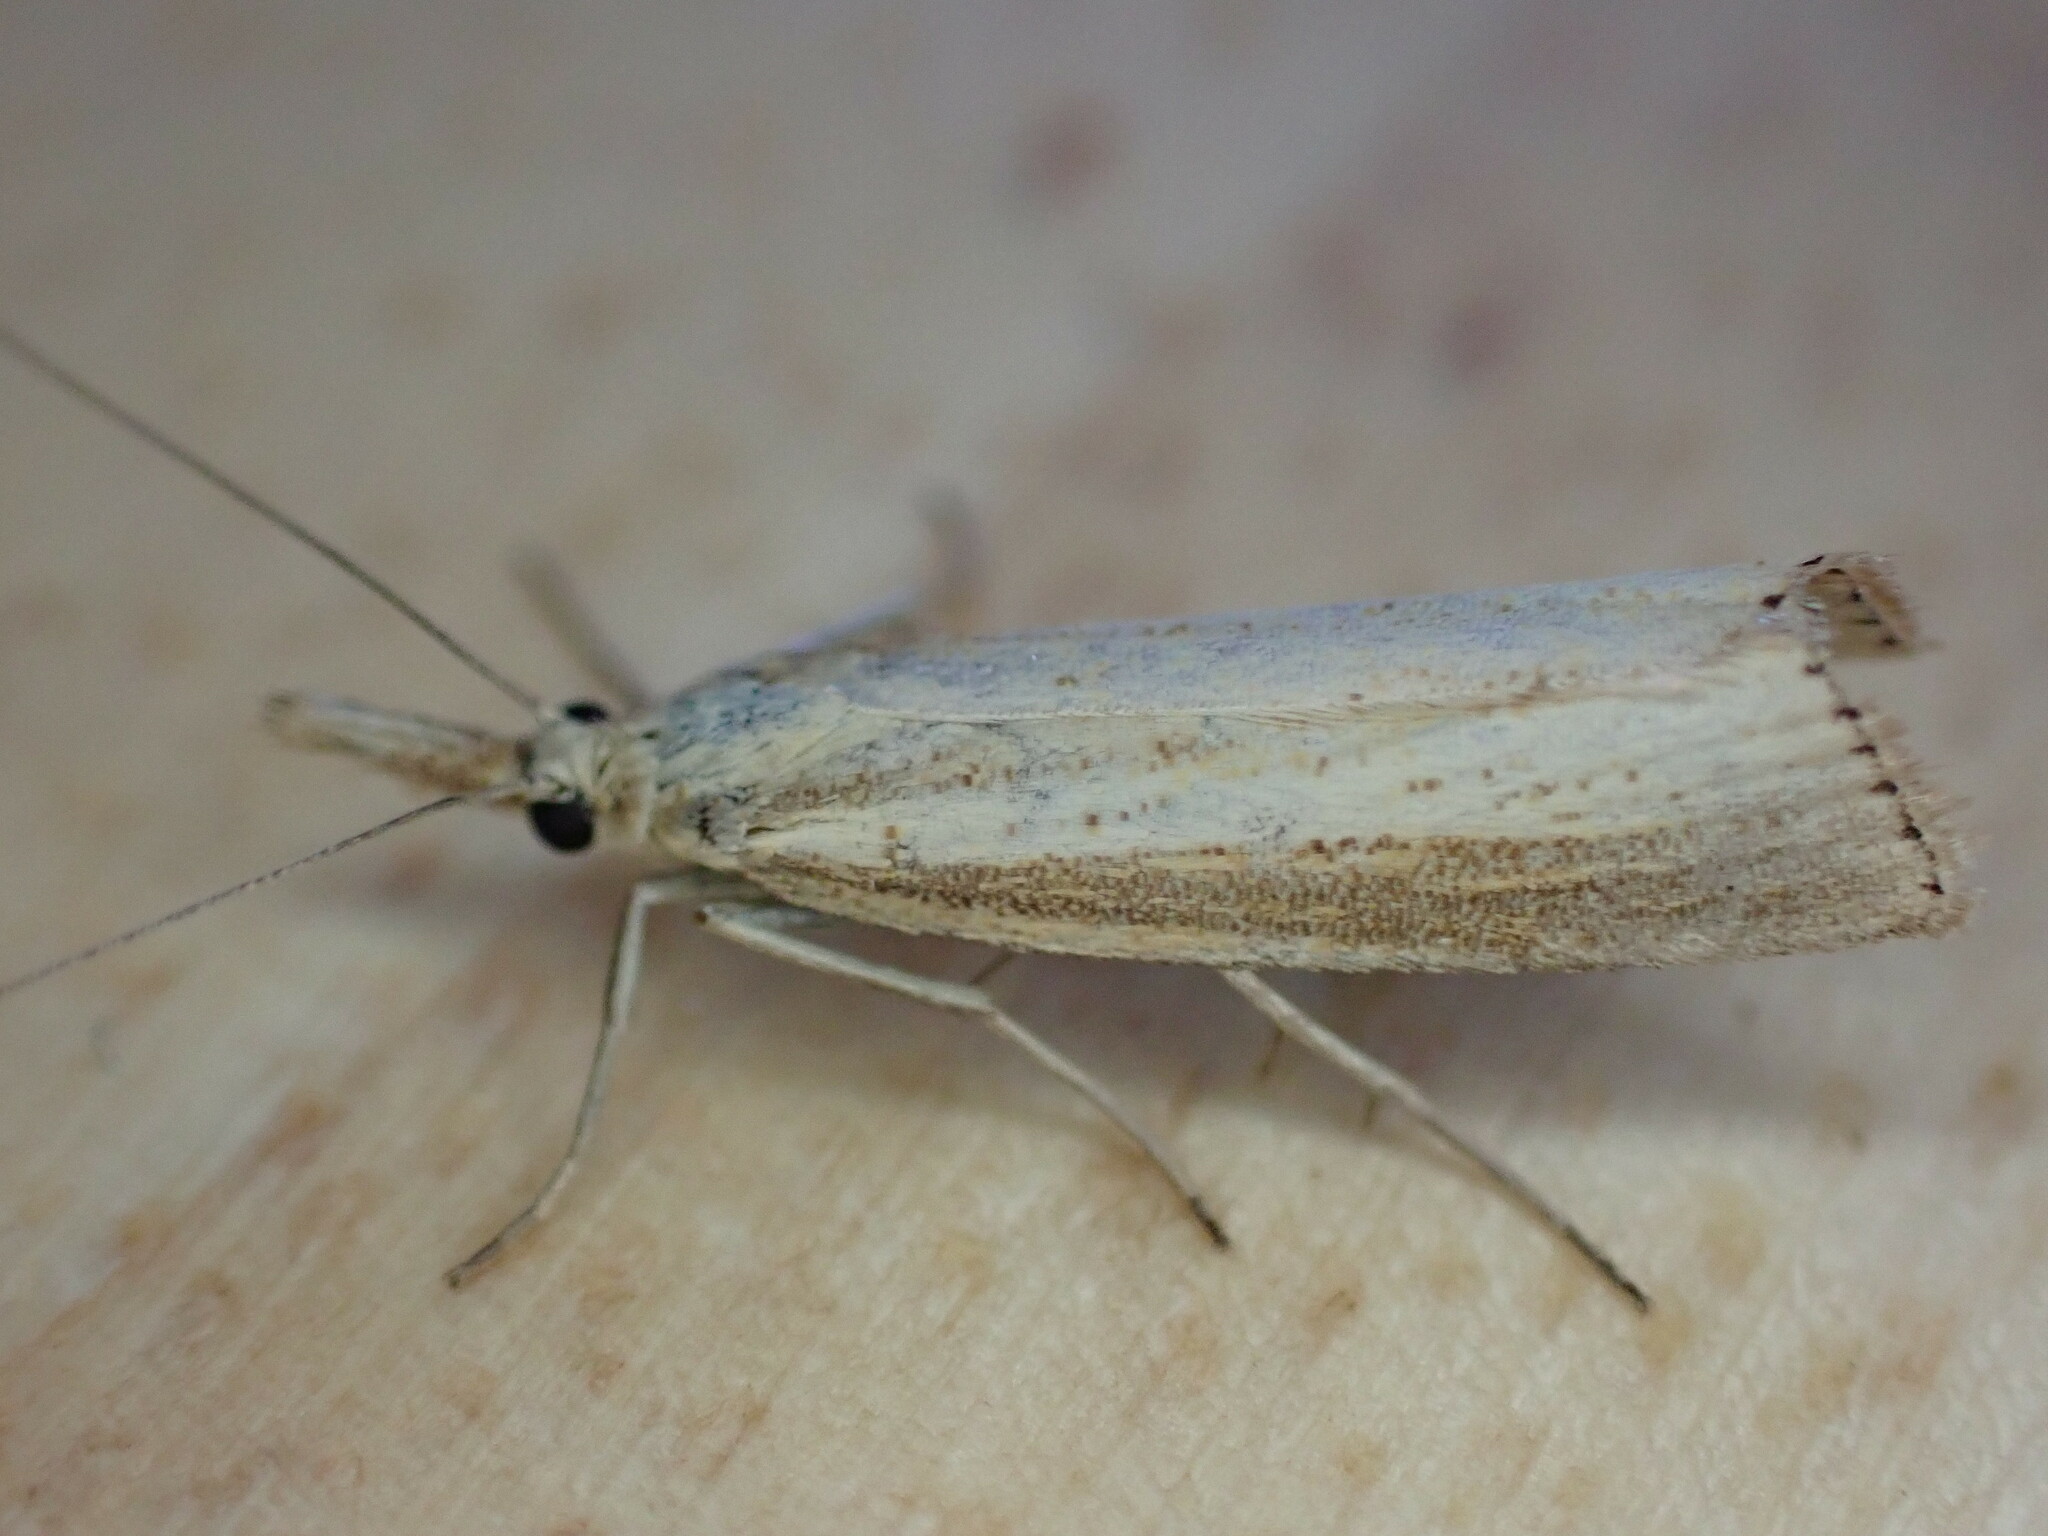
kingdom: Animalia
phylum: Arthropoda
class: Insecta
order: Lepidoptera
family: Crambidae
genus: Agriphila
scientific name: Agriphila straminella
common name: Straw grass-veneer
